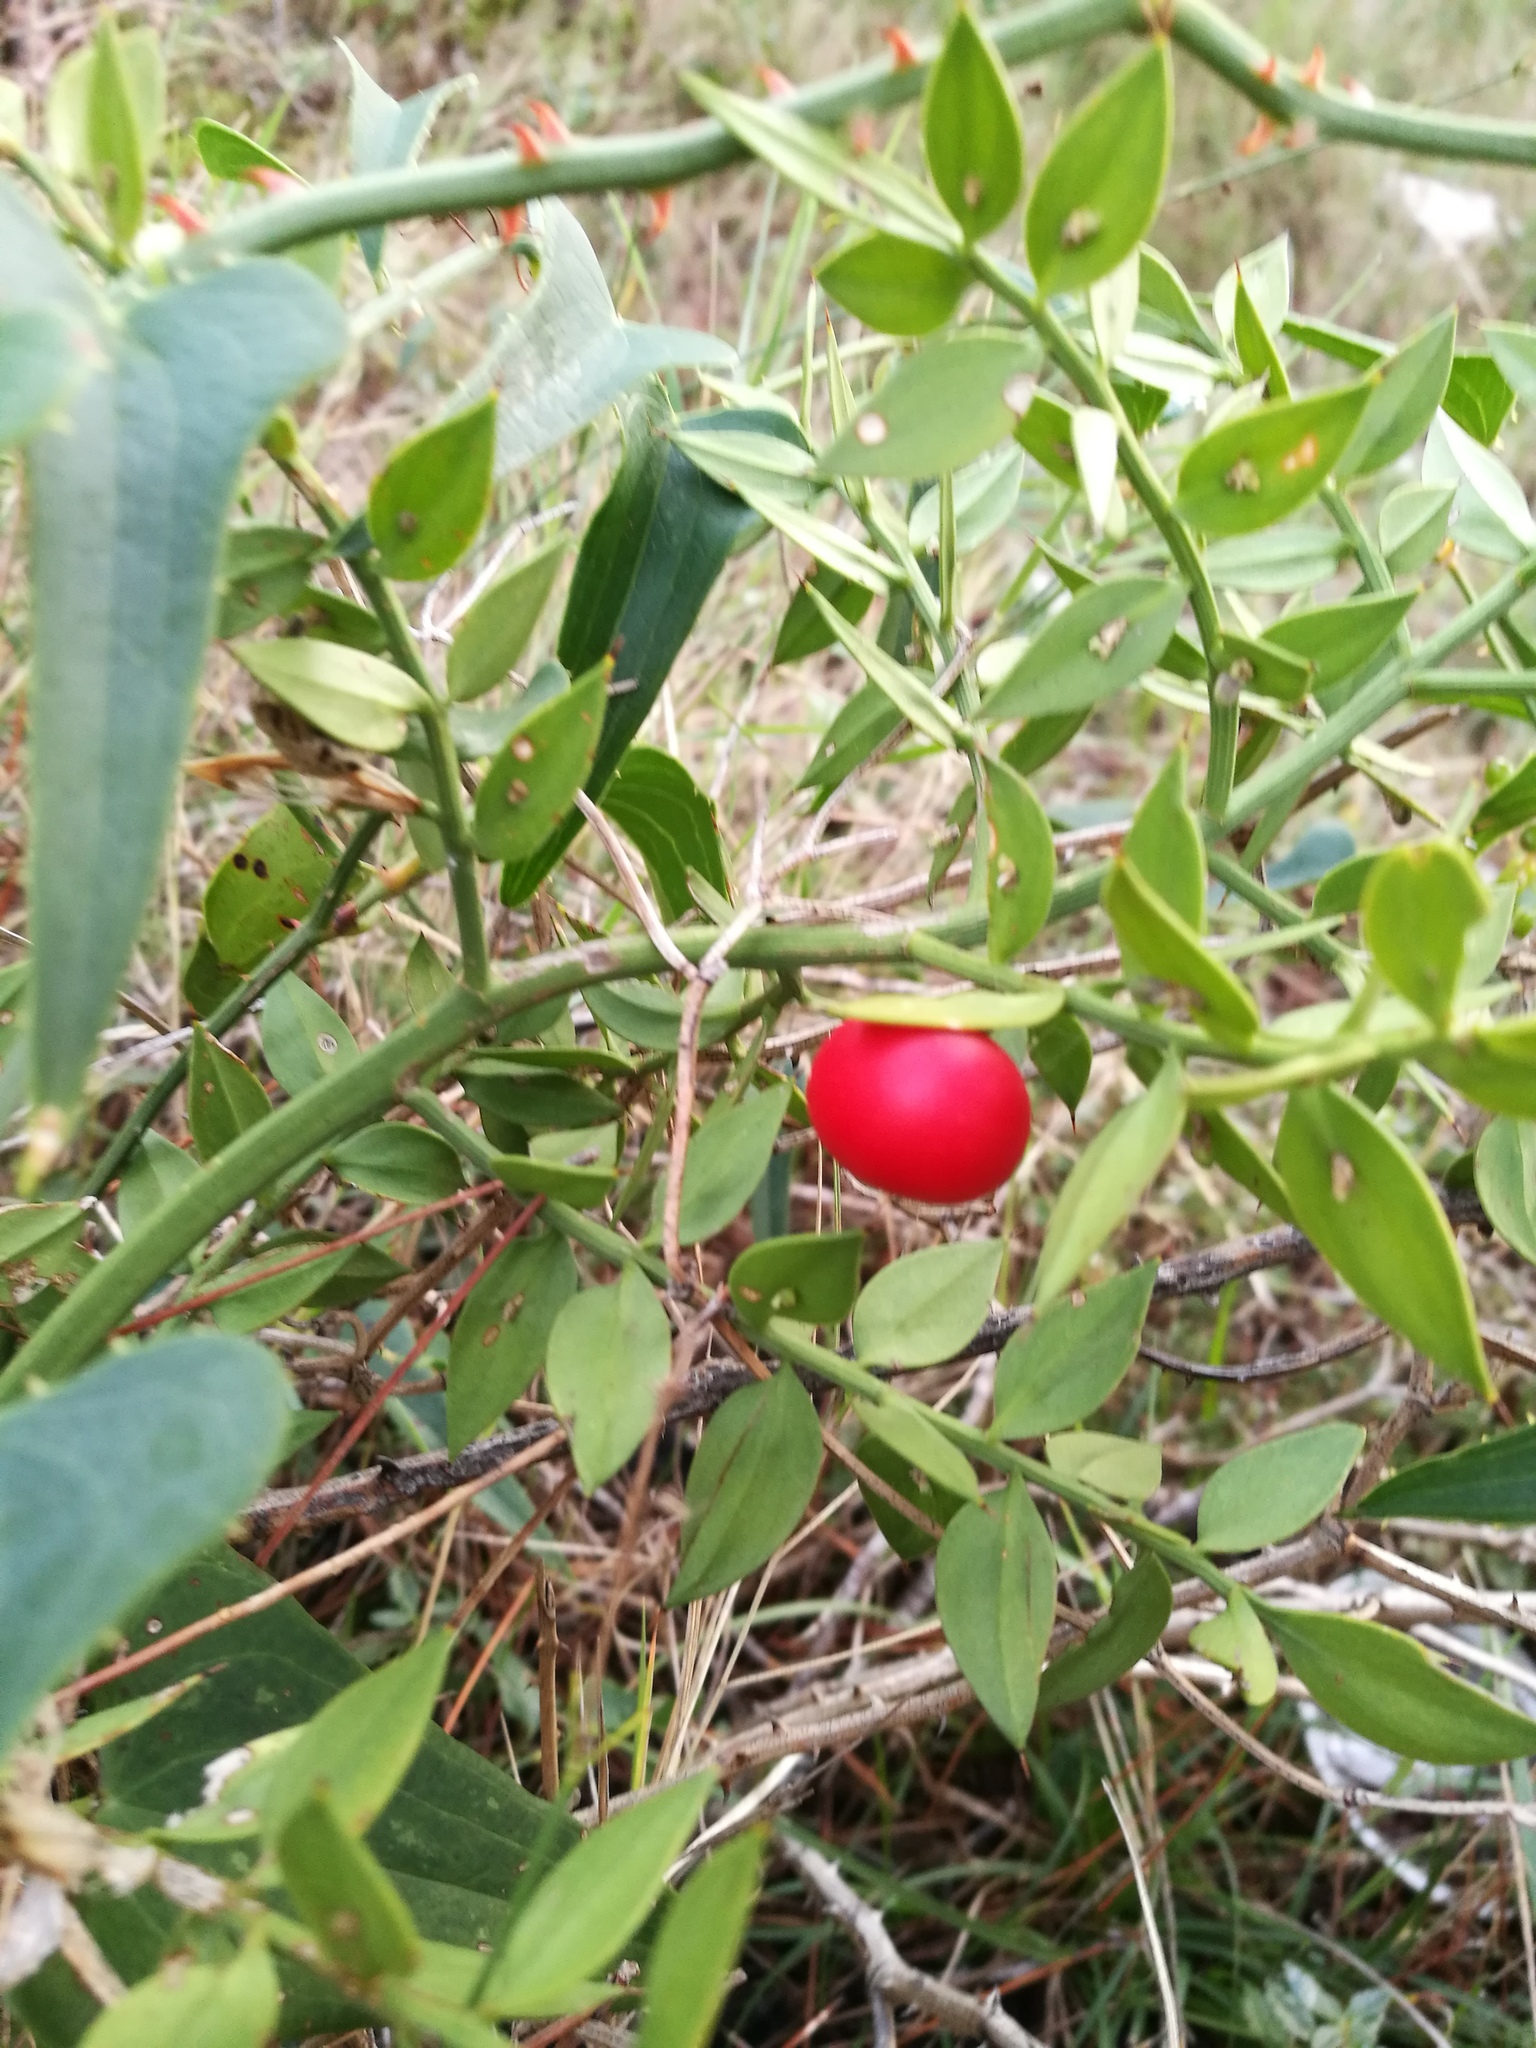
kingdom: Plantae
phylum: Tracheophyta
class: Liliopsida
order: Asparagales
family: Asparagaceae
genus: Ruscus
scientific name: Ruscus aculeatus
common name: Butcher's-broom
